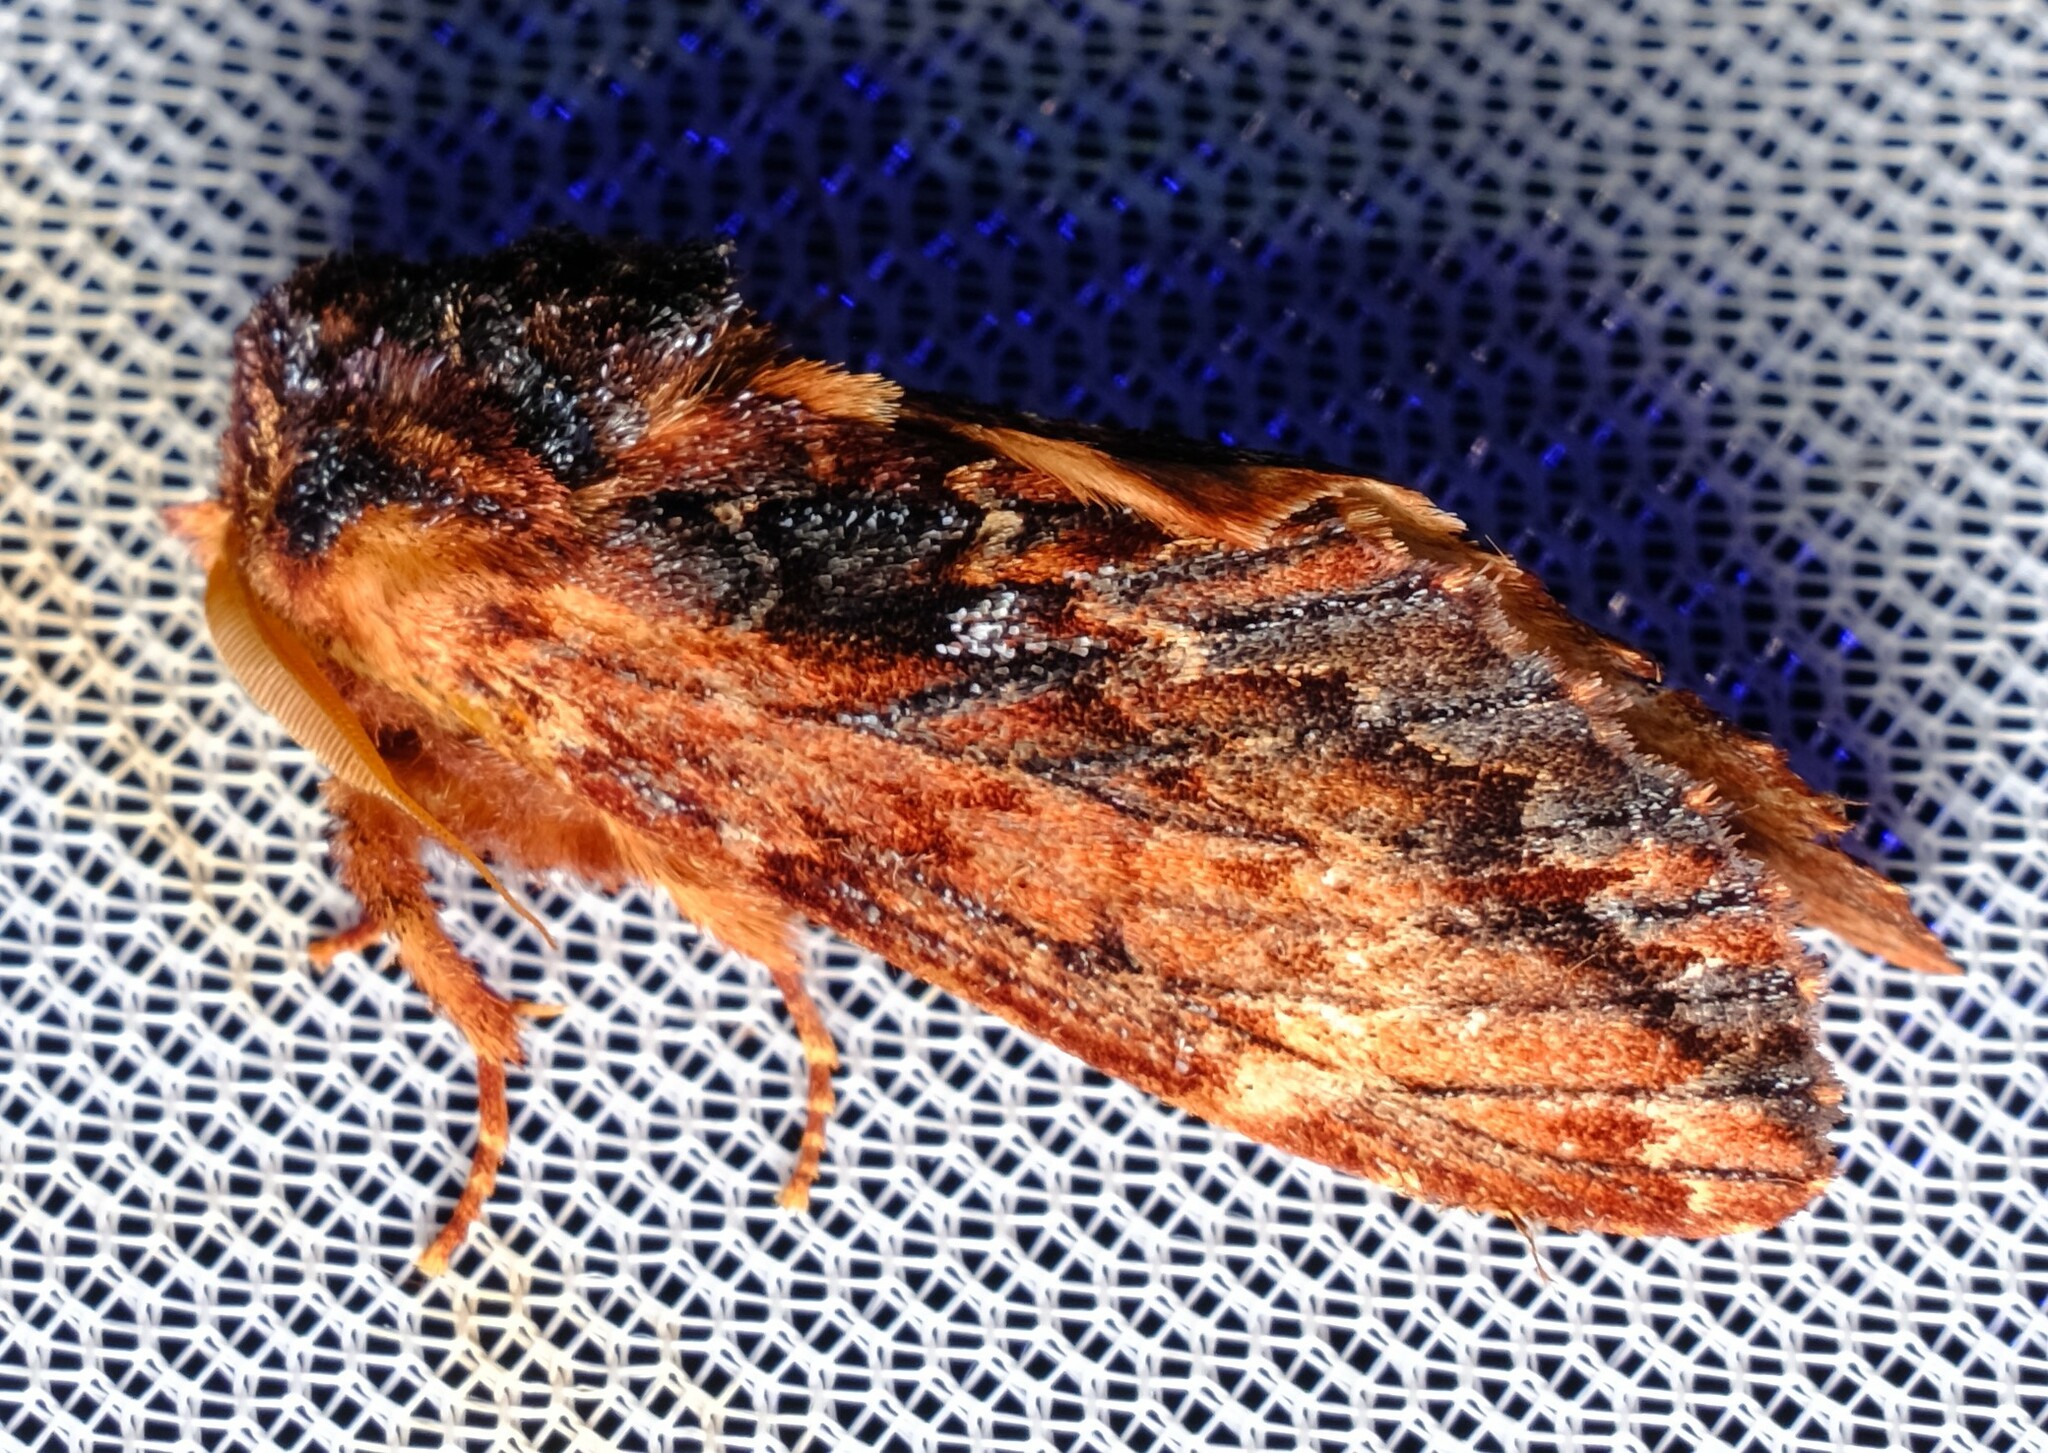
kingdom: Animalia
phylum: Arthropoda
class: Insecta
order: Lepidoptera
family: Notodontidae
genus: Sorama
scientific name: Sorama bicolor
